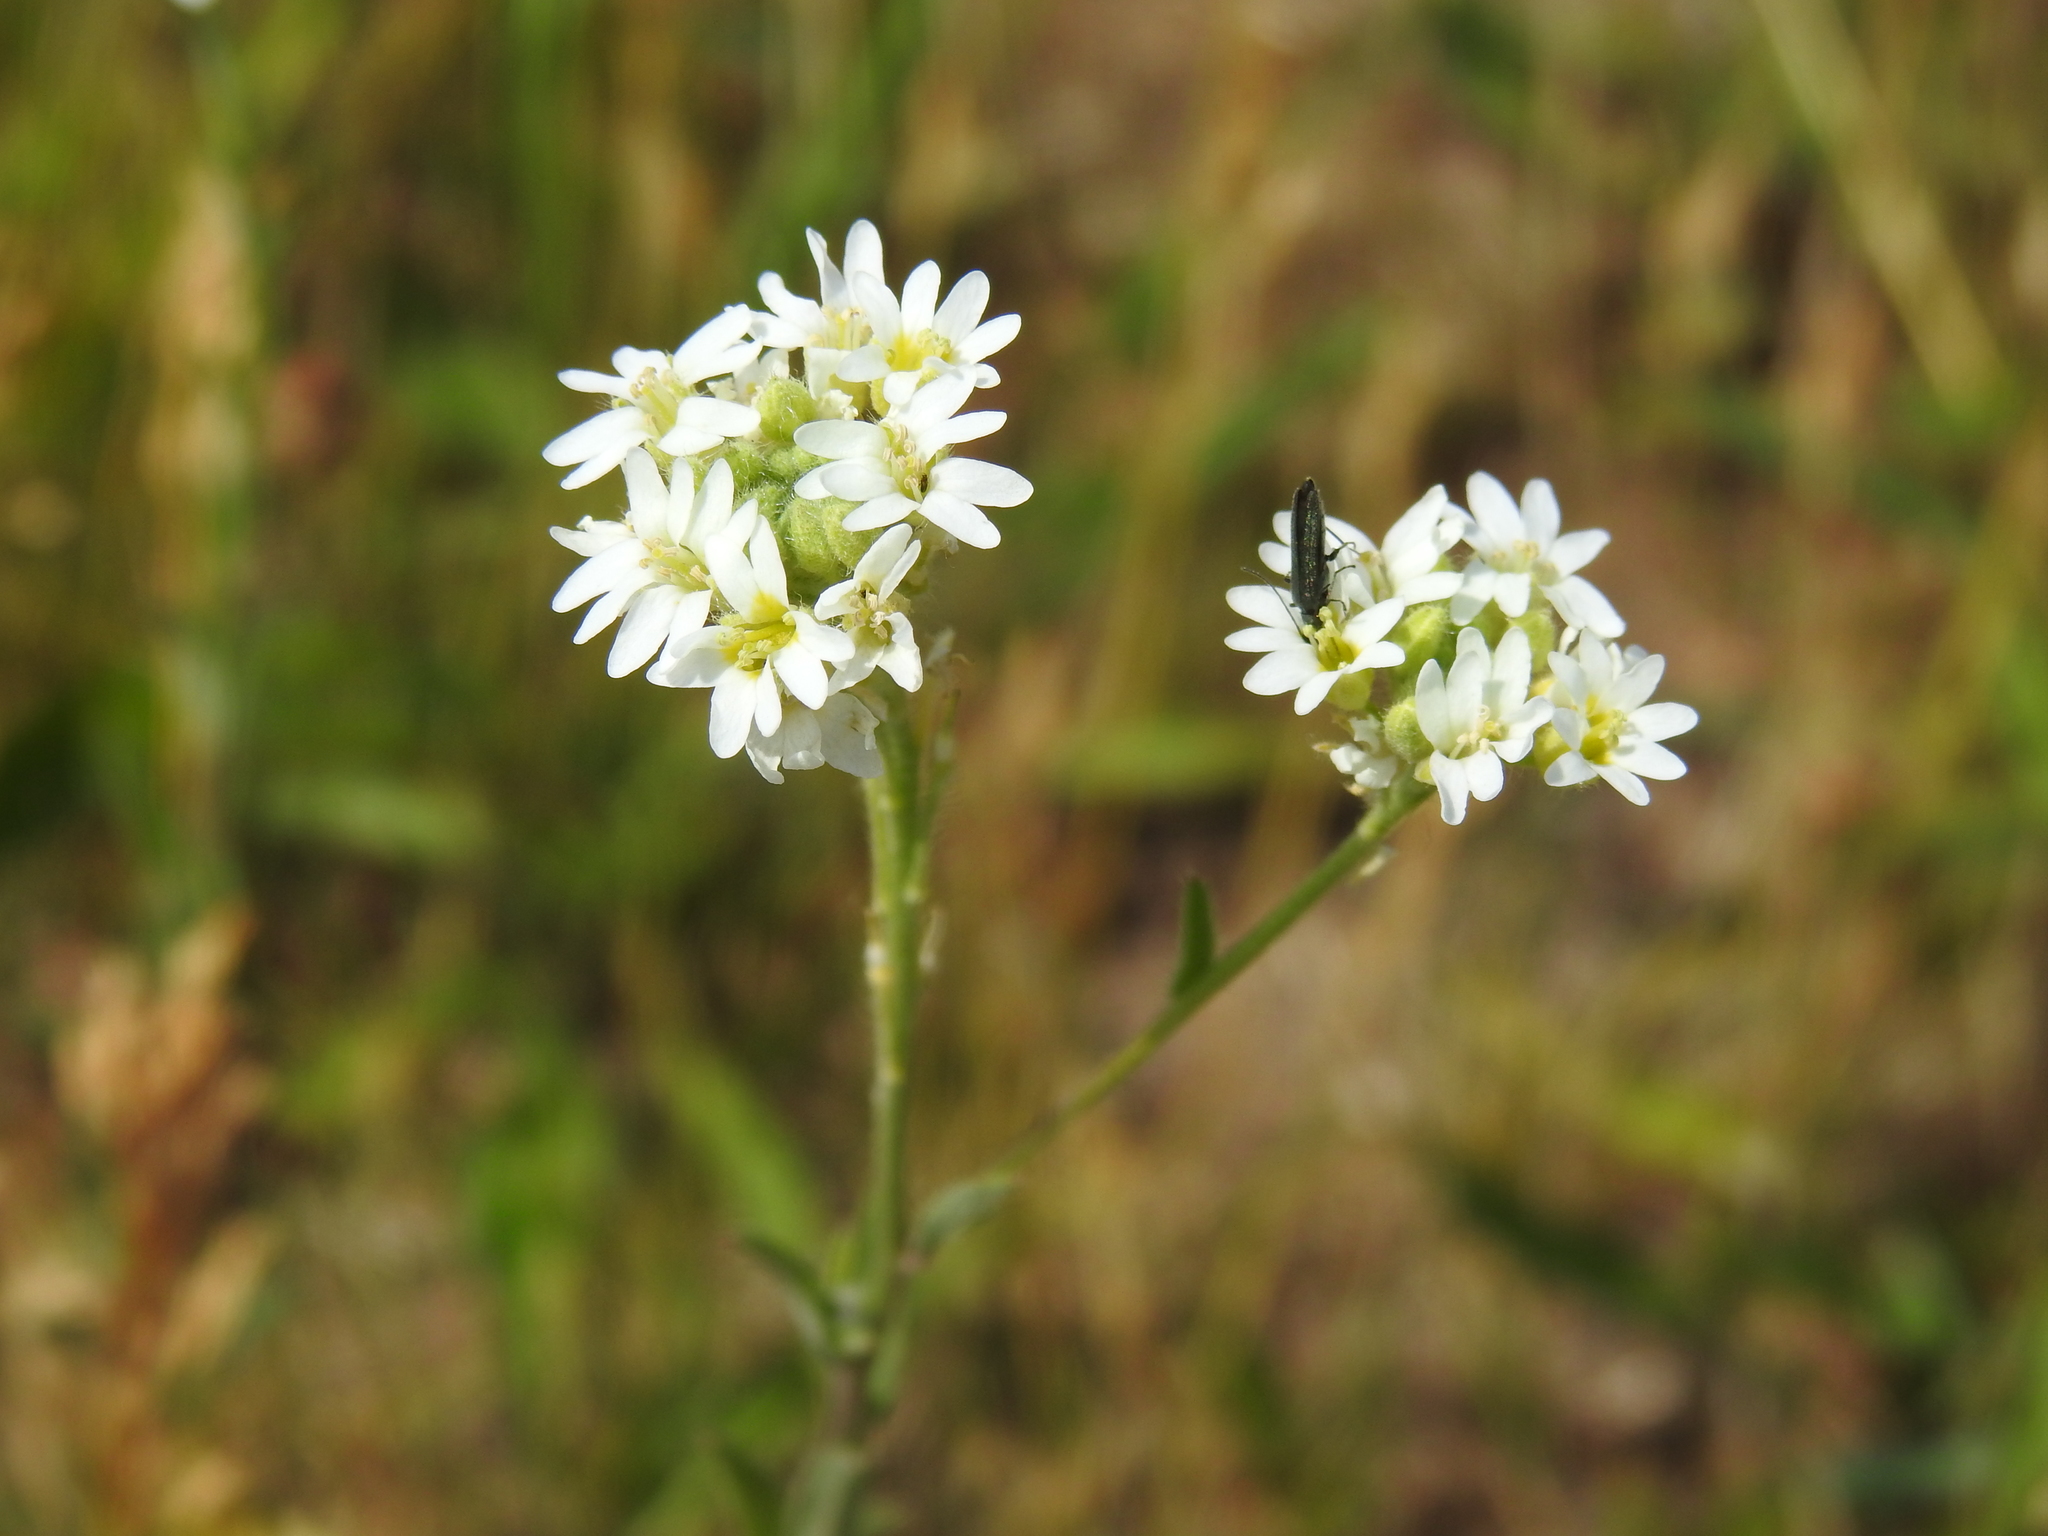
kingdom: Plantae
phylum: Tracheophyta
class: Magnoliopsida
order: Brassicales
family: Brassicaceae
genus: Berteroa
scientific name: Berteroa incana
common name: Hoary alison
